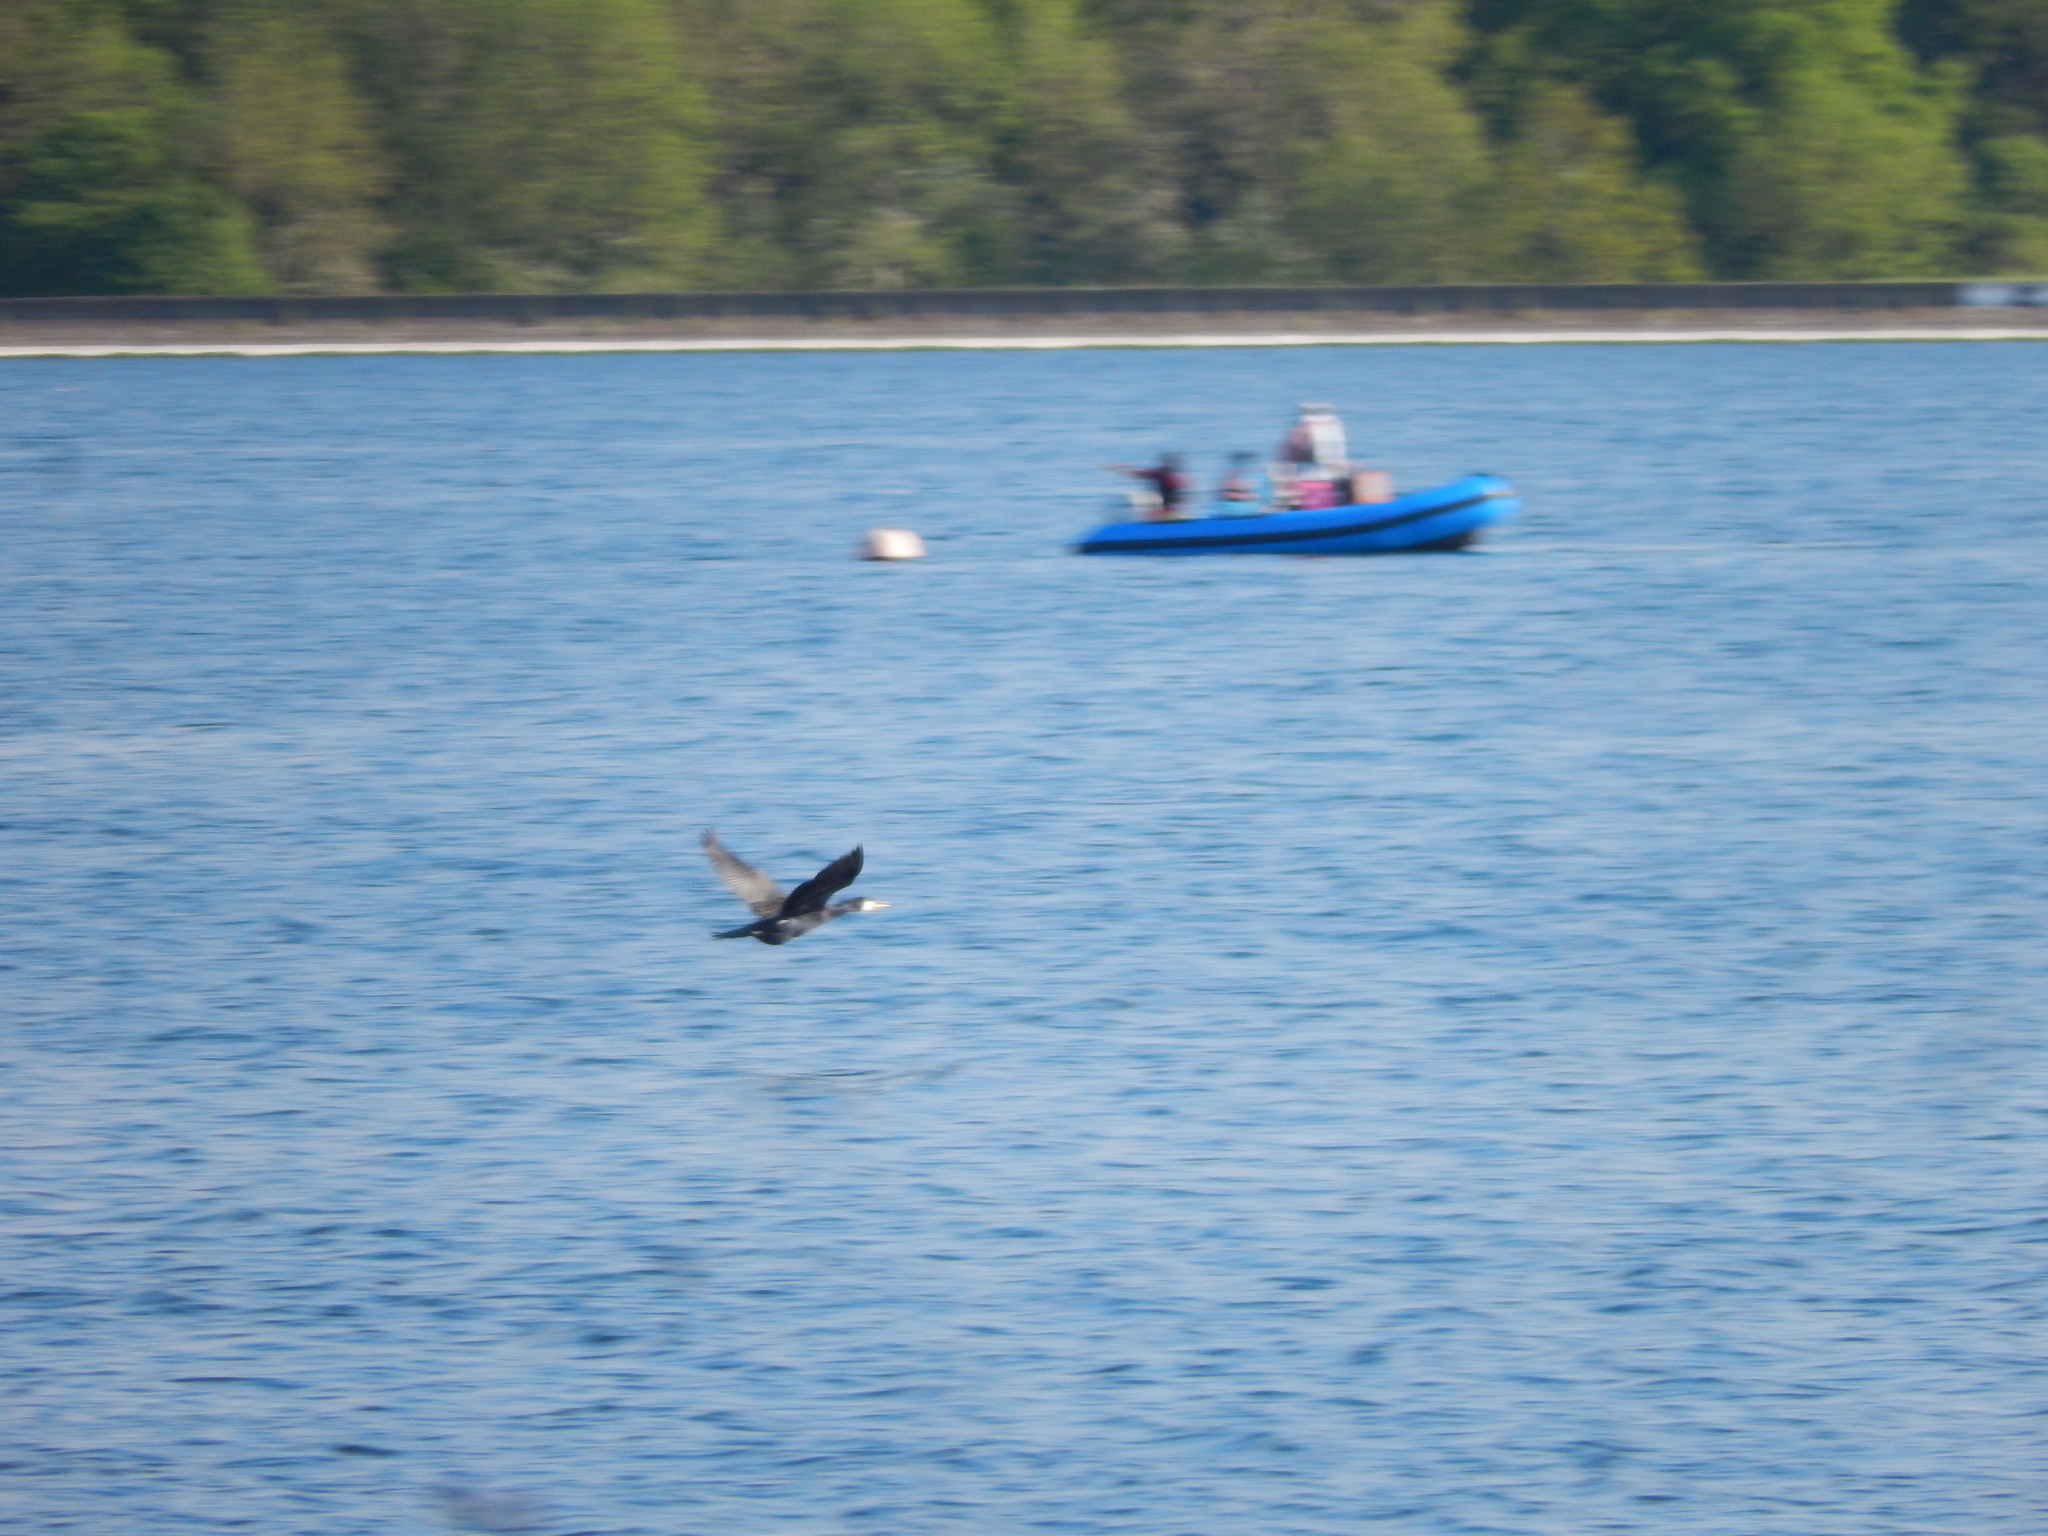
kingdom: Animalia
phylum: Chordata
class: Aves
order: Suliformes
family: Phalacrocoracidae
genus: Phalacrocorax
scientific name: Phalacrocorax carbo
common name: Great cormorant
